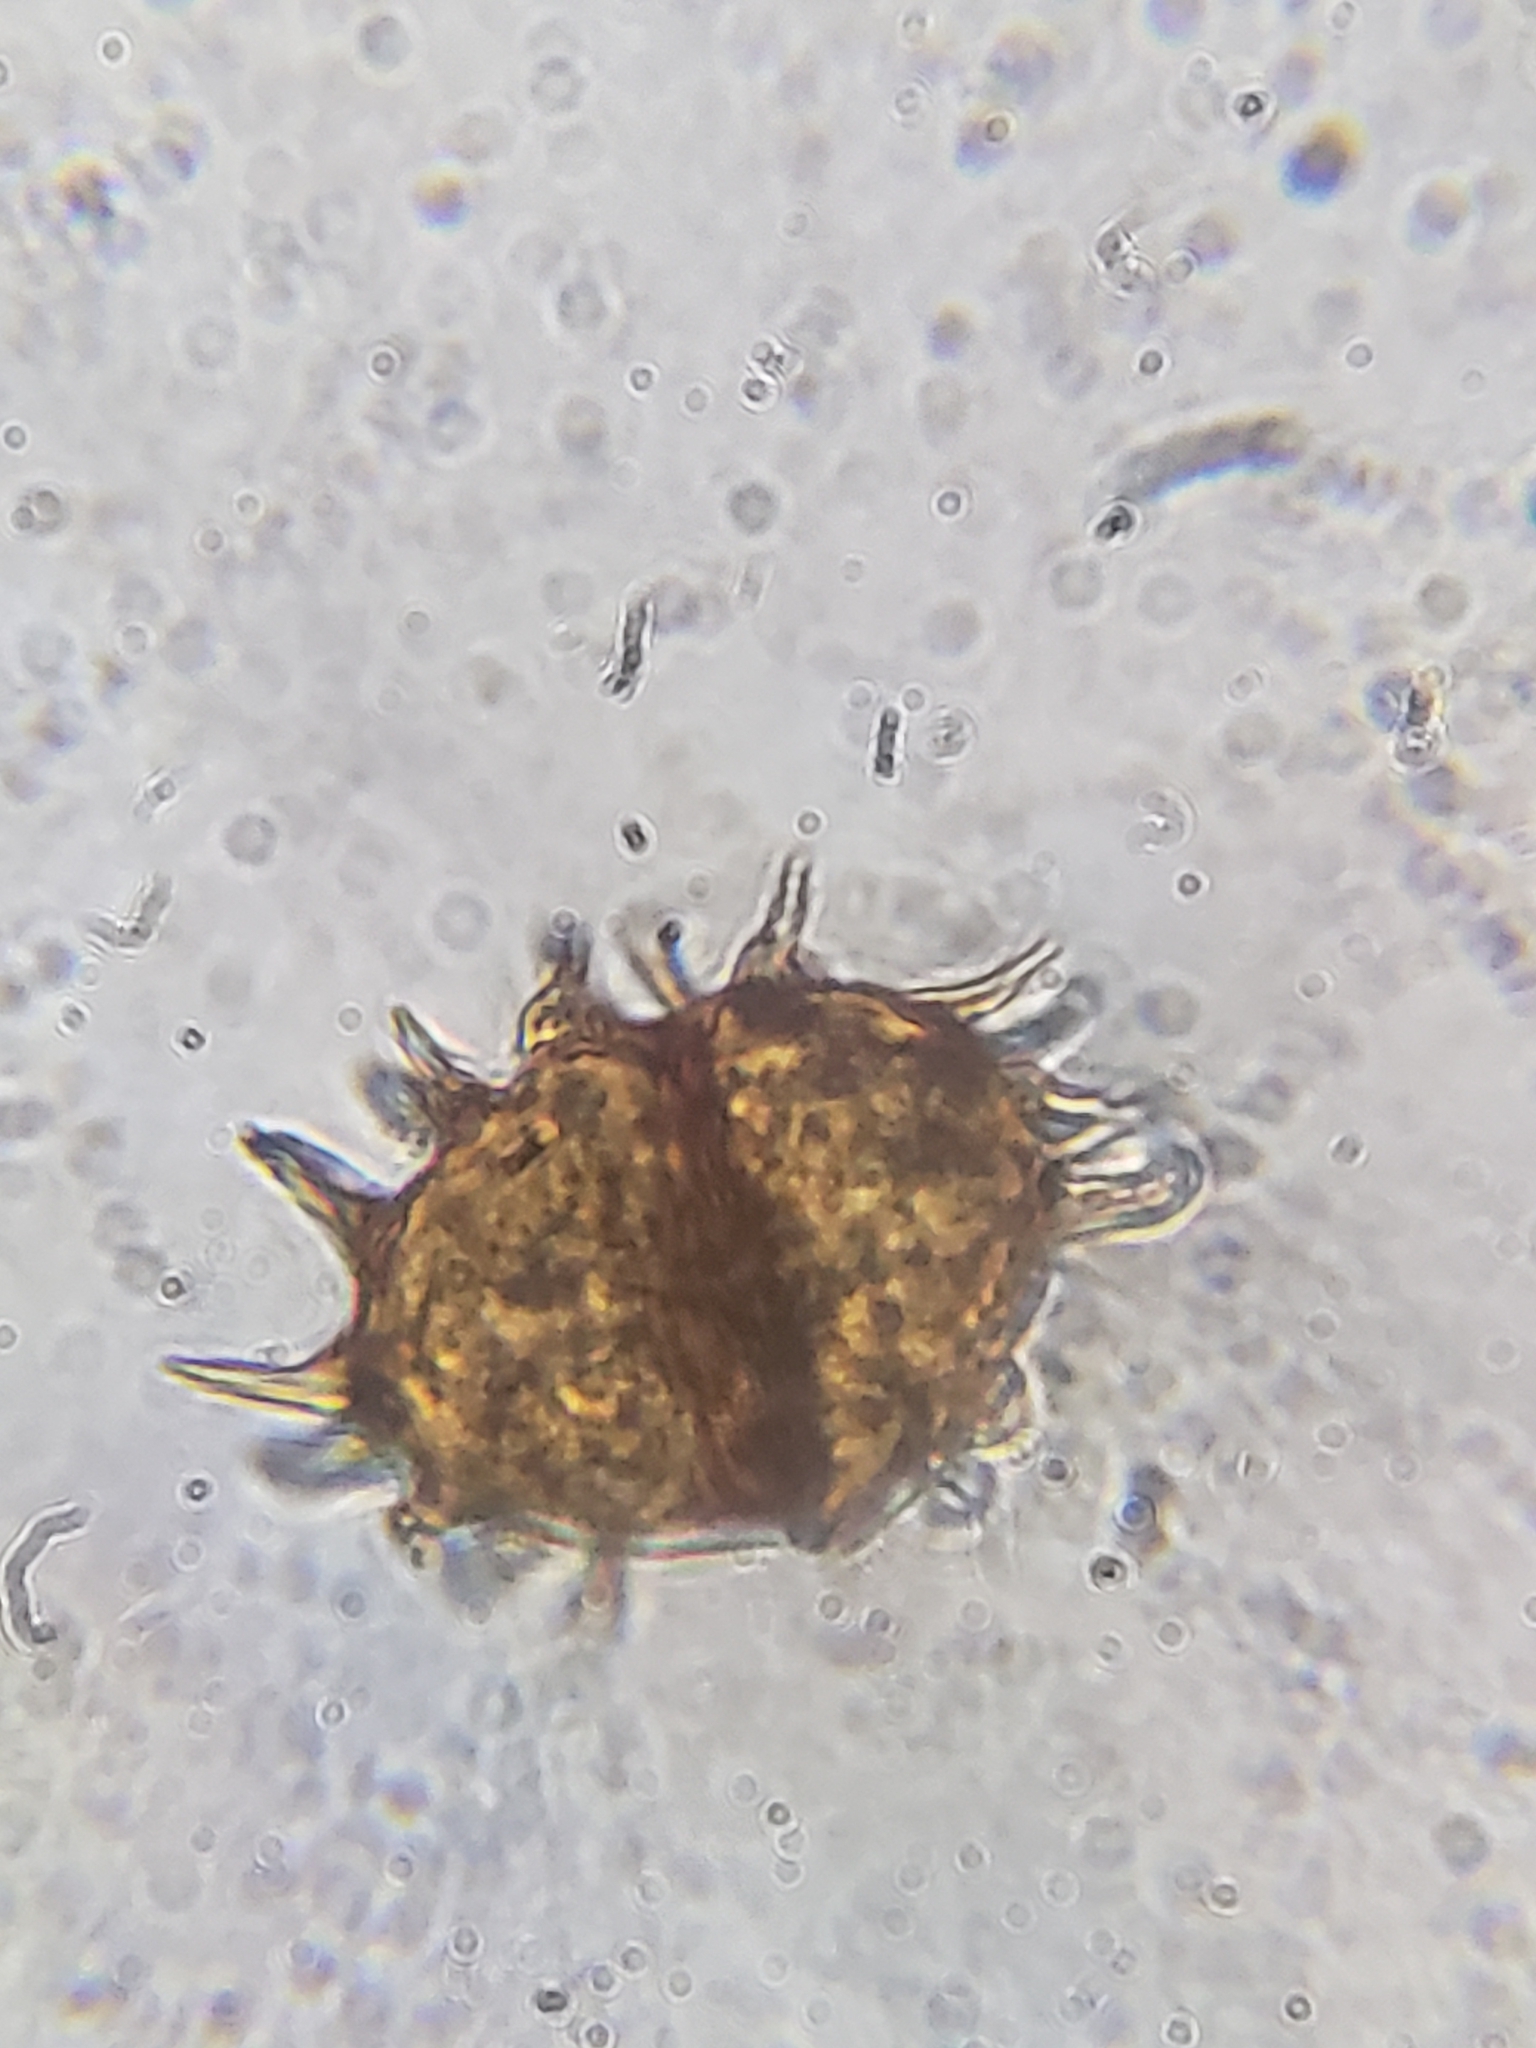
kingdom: Fungi
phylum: Basidiomycota
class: Pucciniomycetes
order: Pucciniales
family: Pucciniaceae
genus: Puccinia
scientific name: Puccinia podophylli
